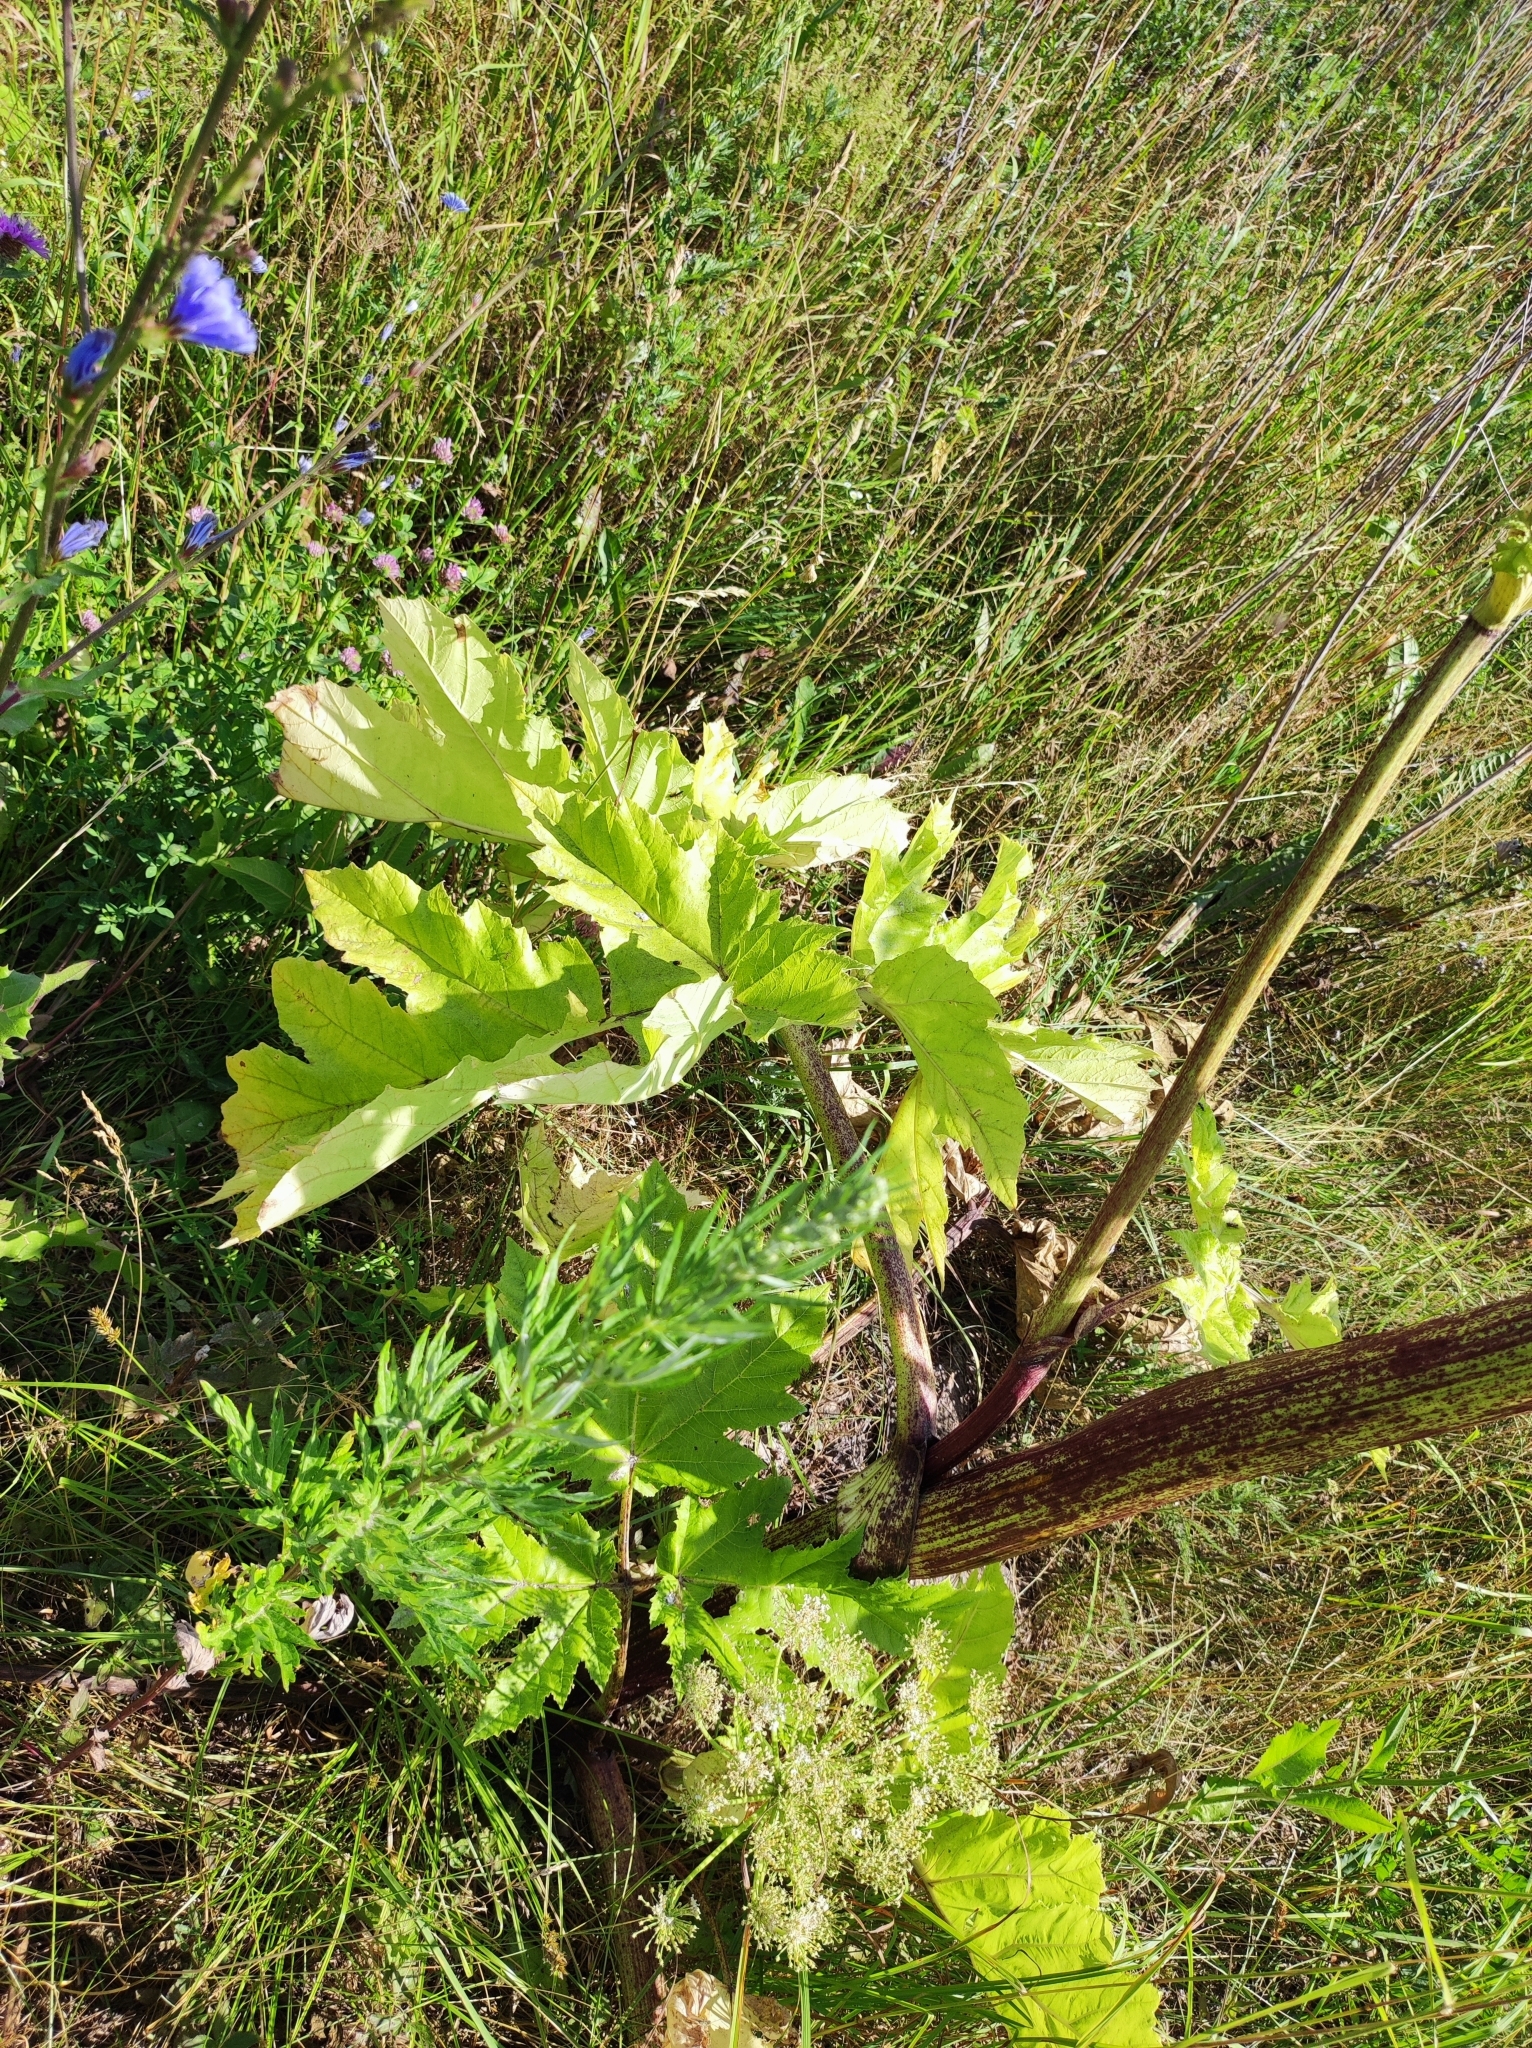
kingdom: Plantae
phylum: Tracheophyta
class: Magnoliopsida
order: Apiales
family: Apiaceae
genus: Heracleum
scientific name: Heracleum sosnowskyi
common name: Sosnowsky's hogweed
